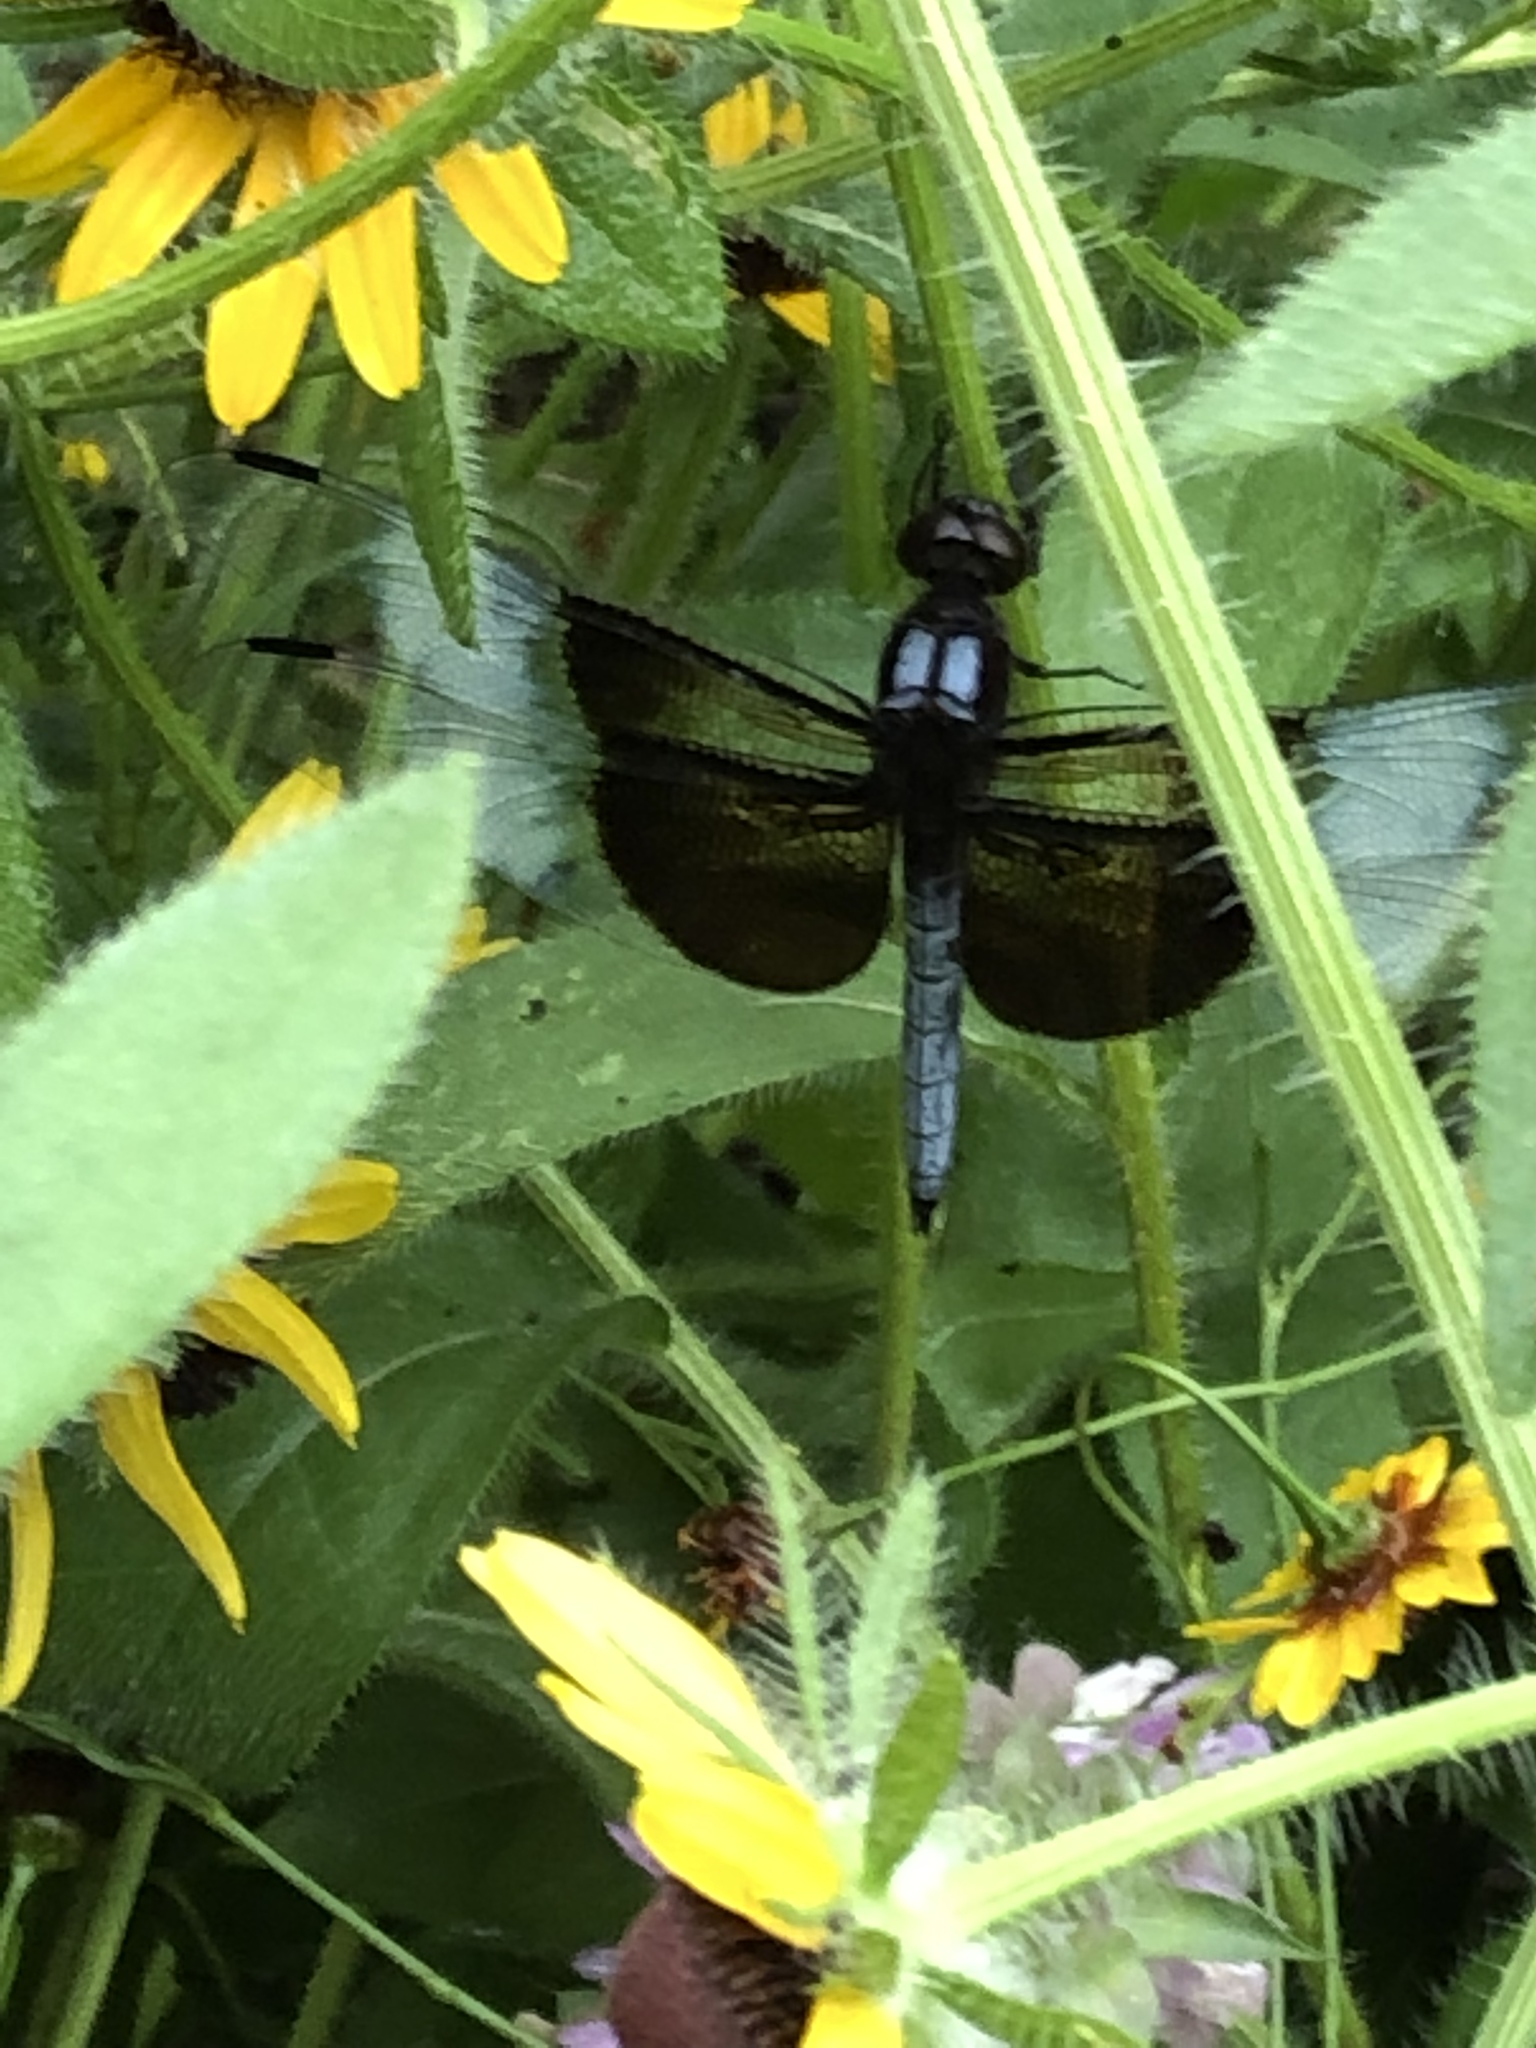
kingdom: Animalia
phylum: Arthropoda
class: Insecta
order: Odonata
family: Libellulidae
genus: Libellula
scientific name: Libellula luctuosa
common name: Widow skimmer
